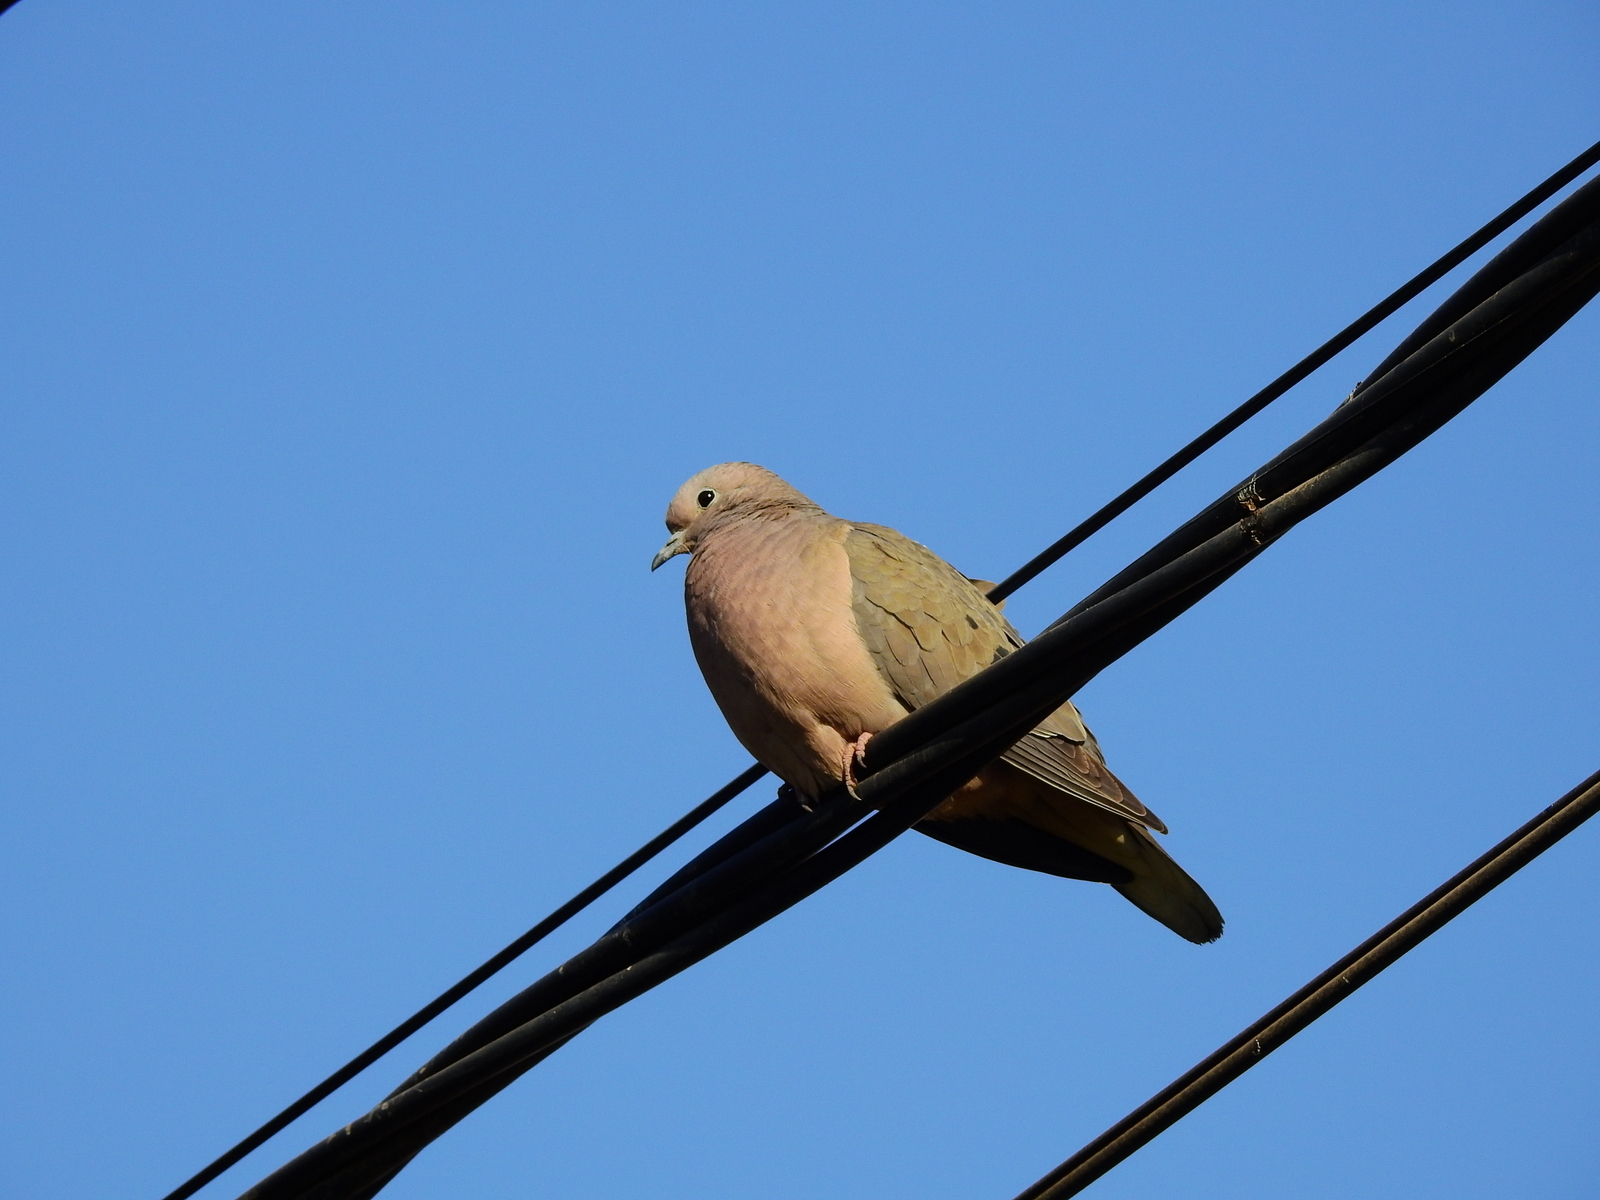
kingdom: Animalia
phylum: Chordata
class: Aves
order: Columbiformes
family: Columbidae
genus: Zenaida
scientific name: Zenaida auriculata
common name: Eared dove
